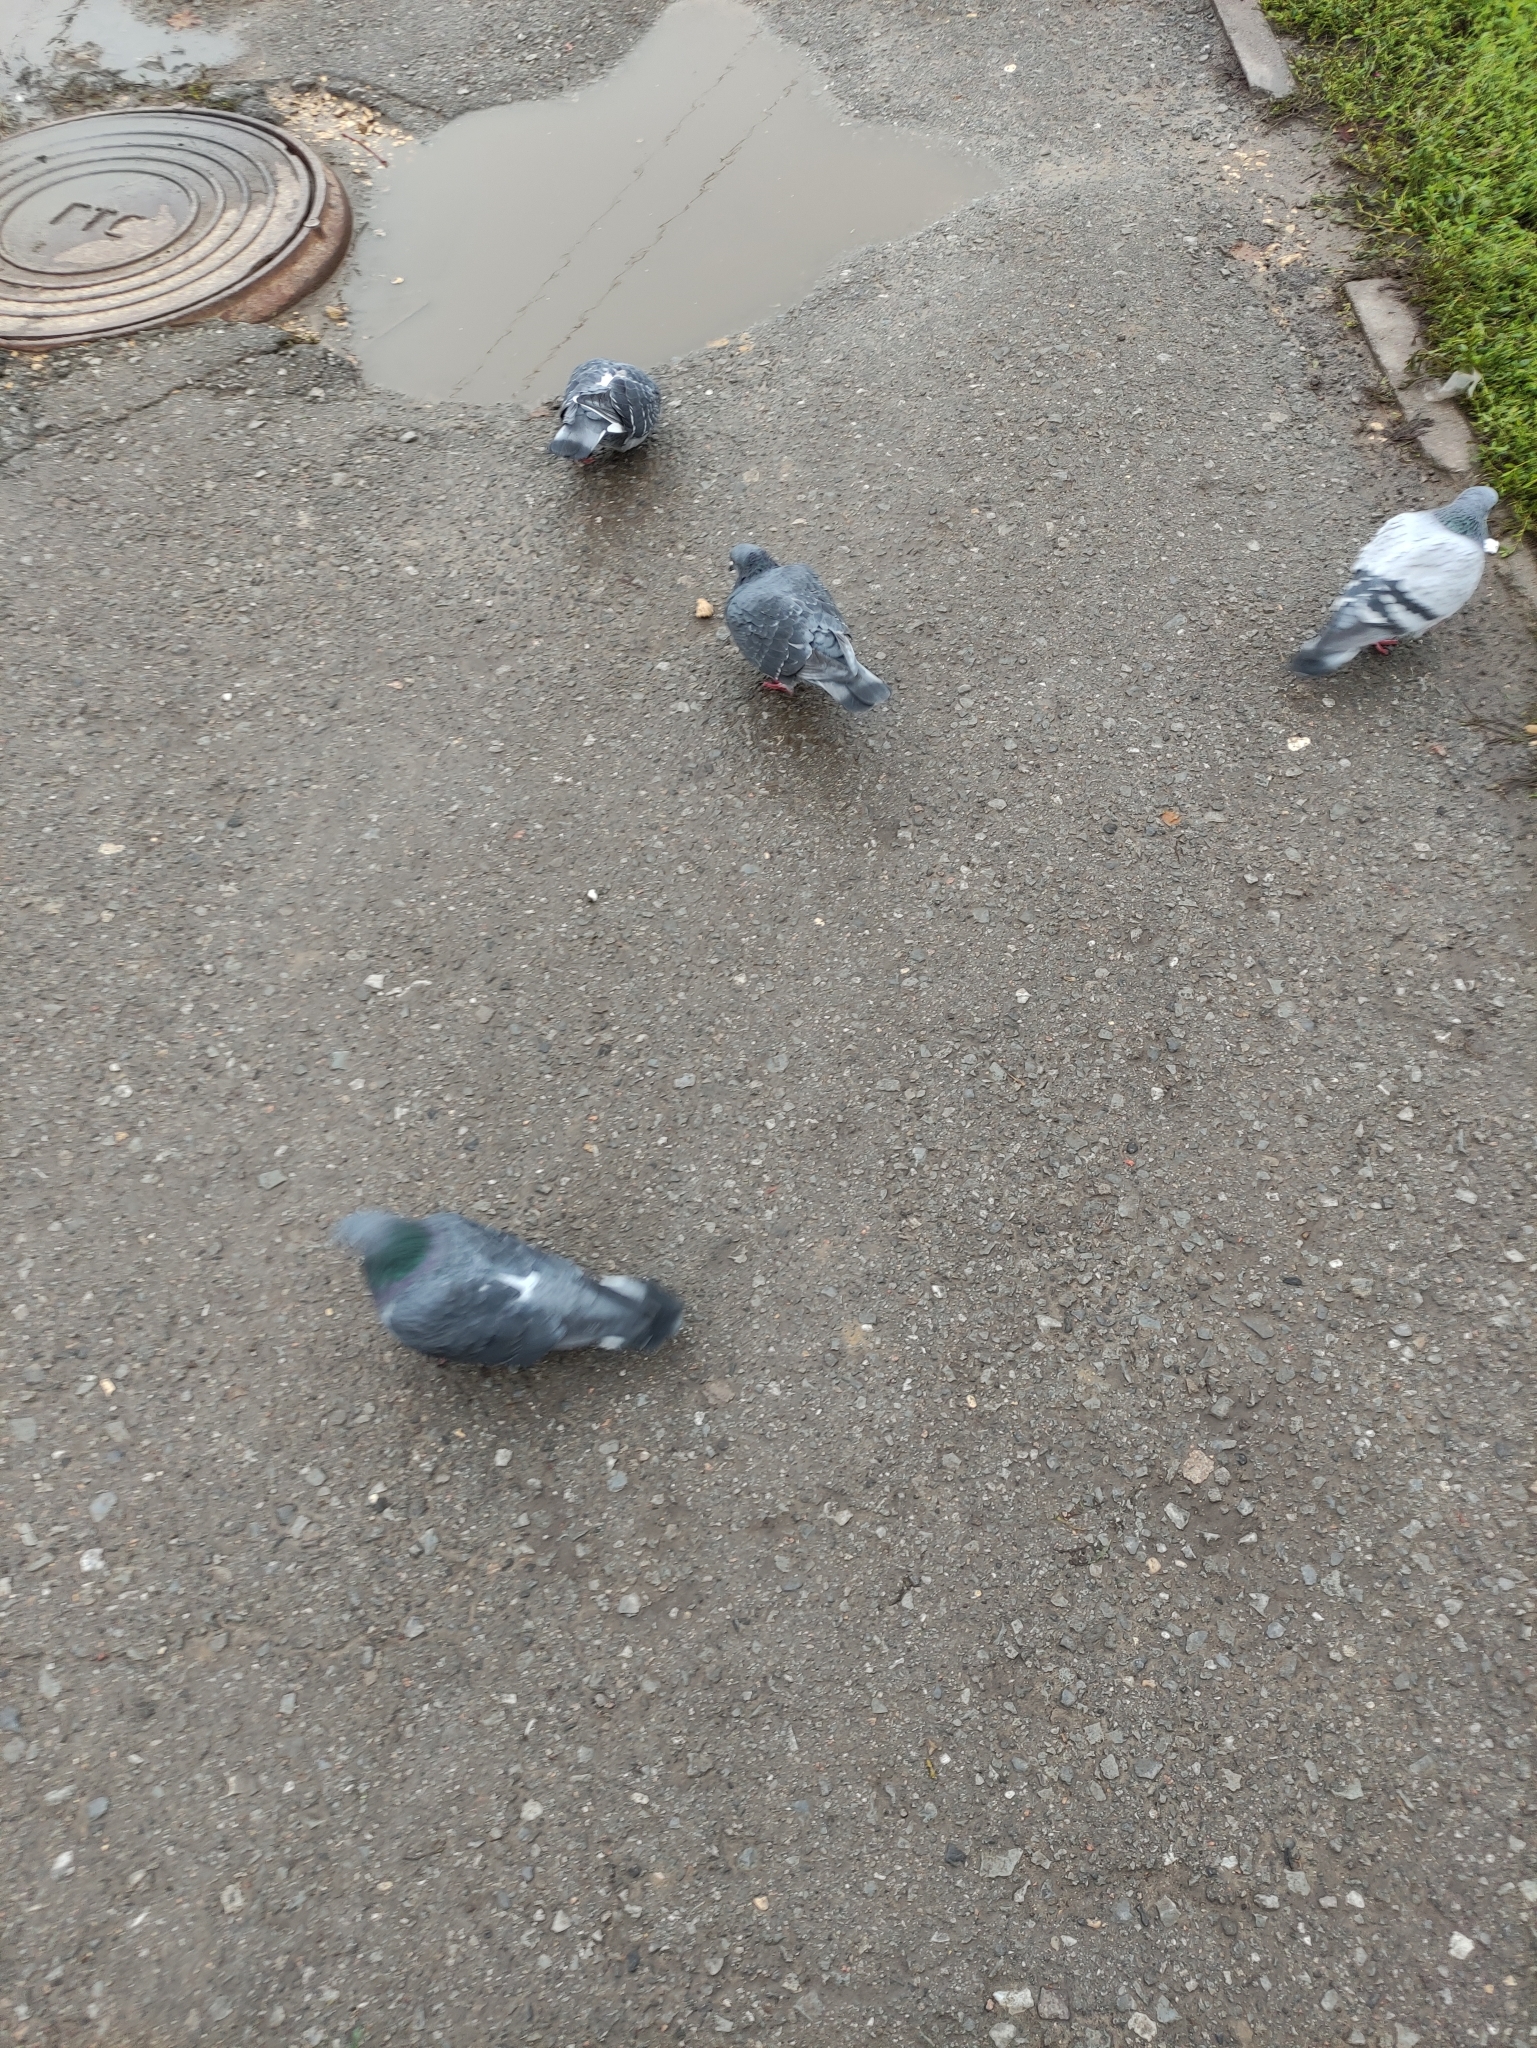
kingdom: Animalia
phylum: Chordata
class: Aves
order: Columbiformes
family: Columbidae
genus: Columba
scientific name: Columba livia
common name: Rock pigeon
